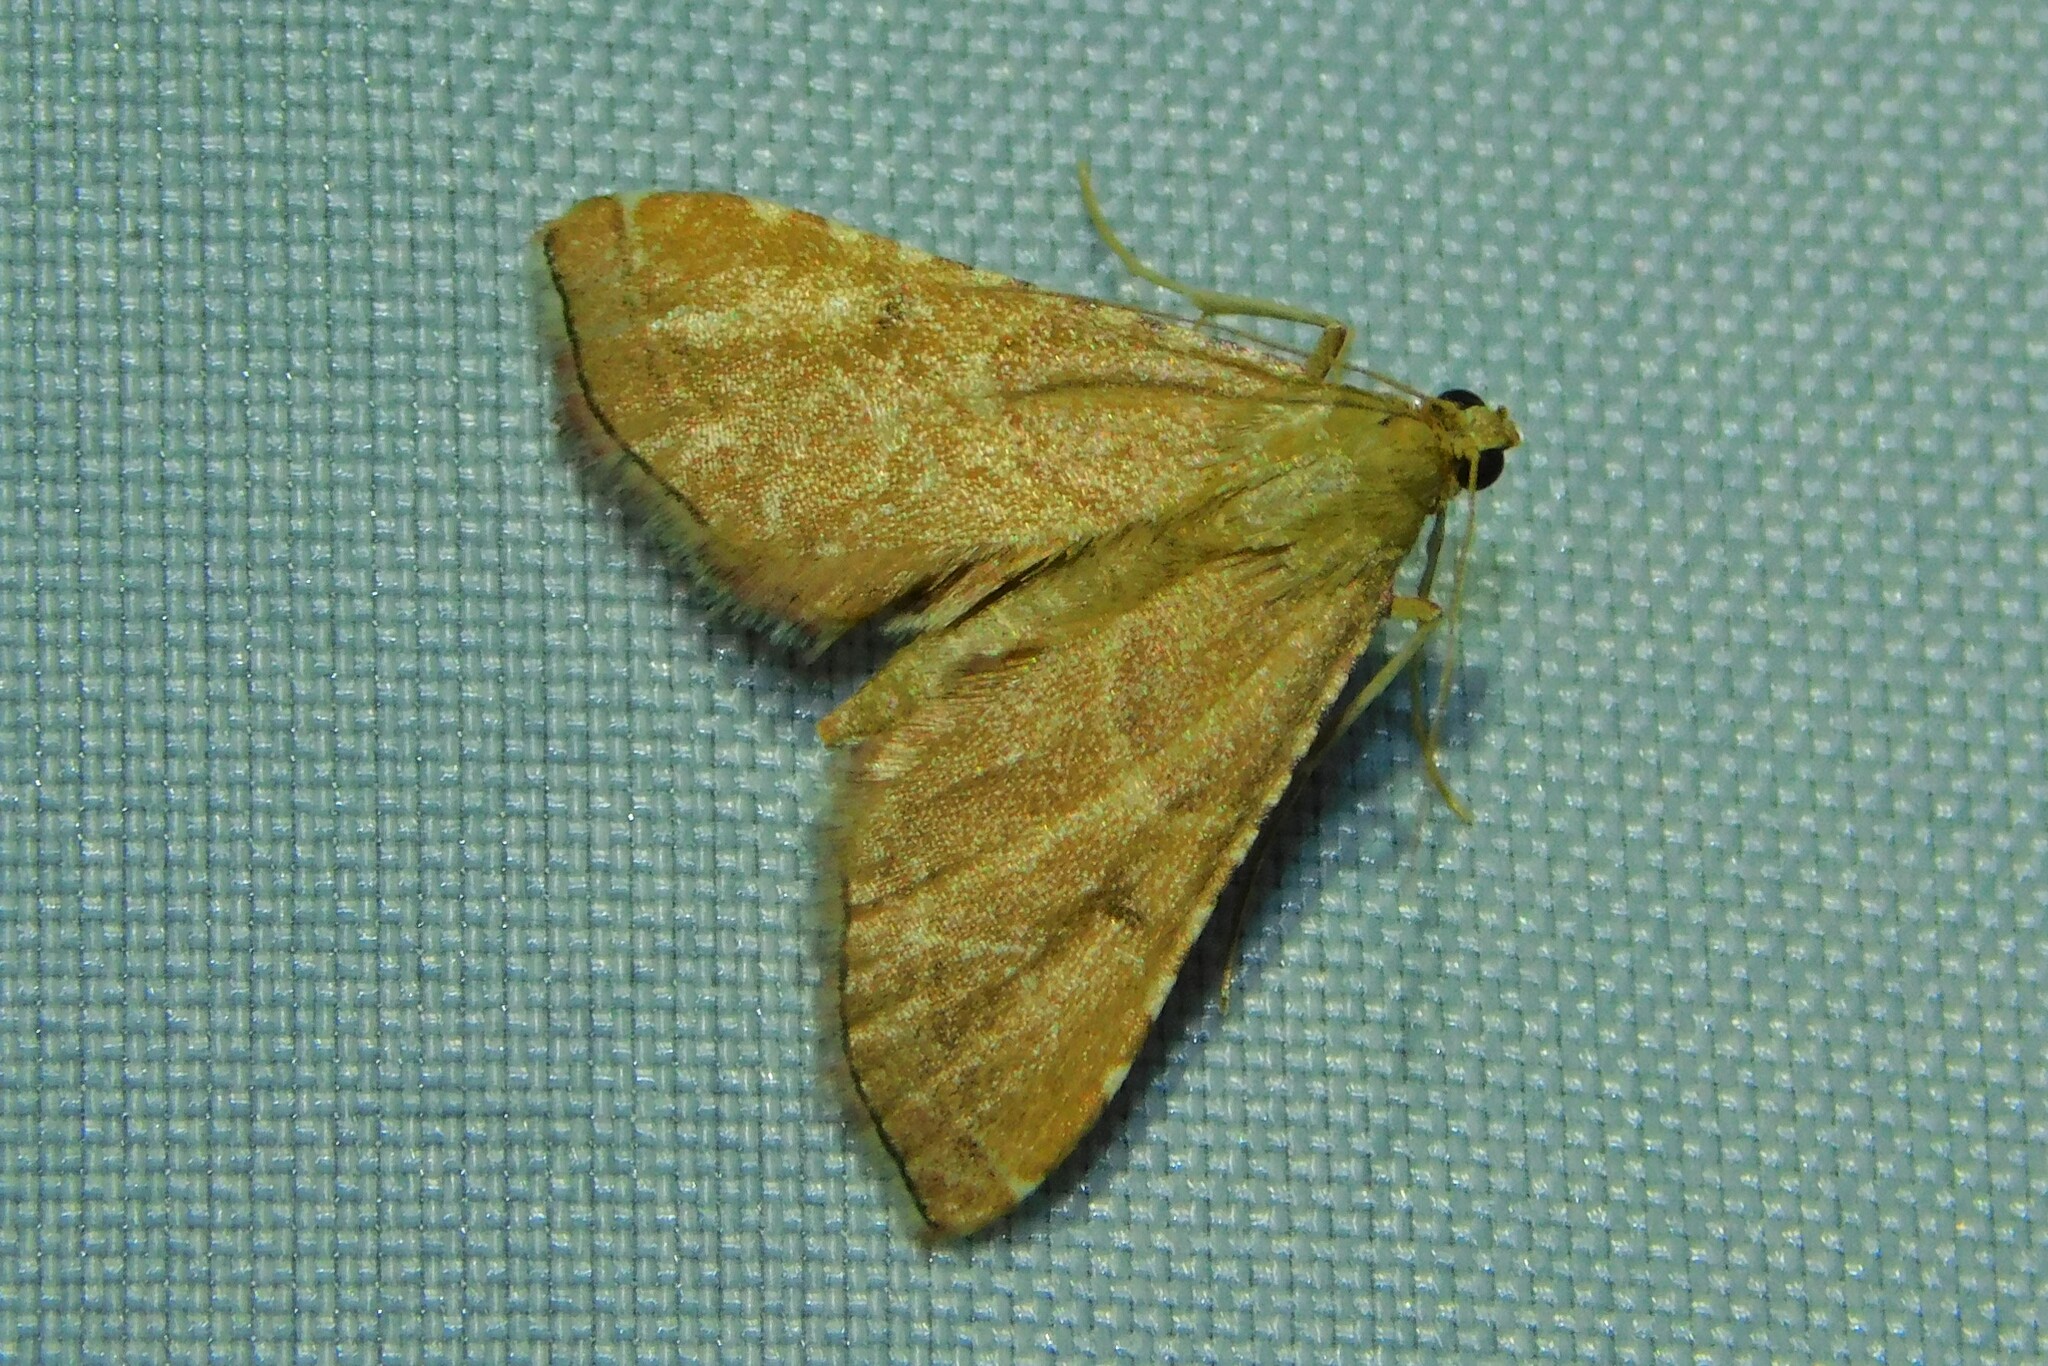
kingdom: Animalia
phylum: Arthropoda
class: Insecta
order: Lepidoptera
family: Pyralidae
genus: Endotricha
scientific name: Endotricha flammealis
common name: Rosy tabby
